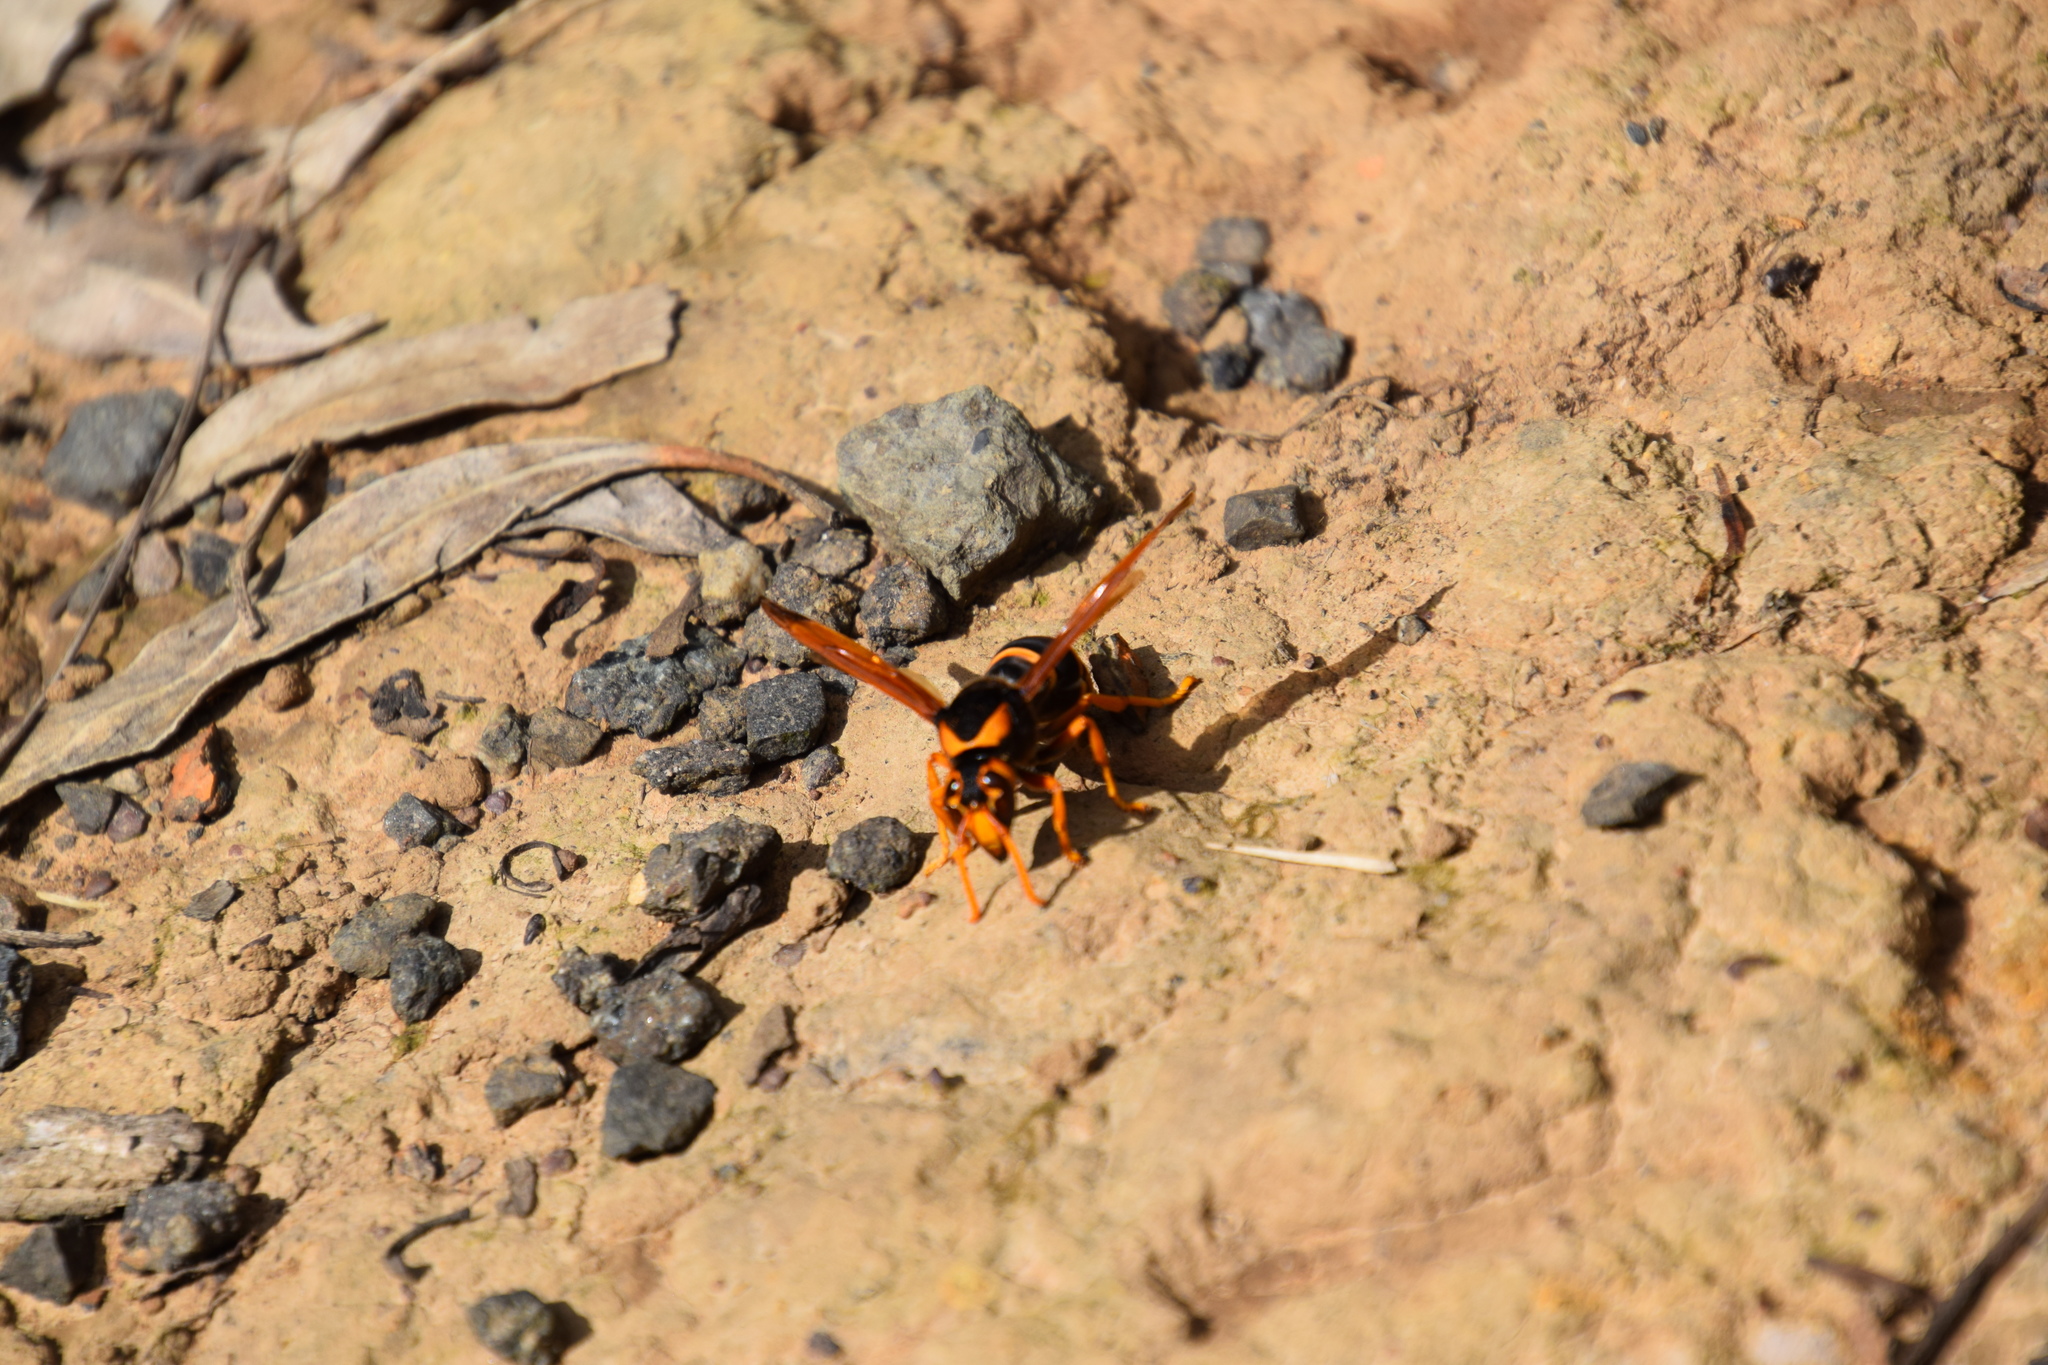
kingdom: Animalia
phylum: Arthropoda
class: Insecta
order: Hymenoptera
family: Eumenidae
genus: Abispa
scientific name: Abispa splendida
